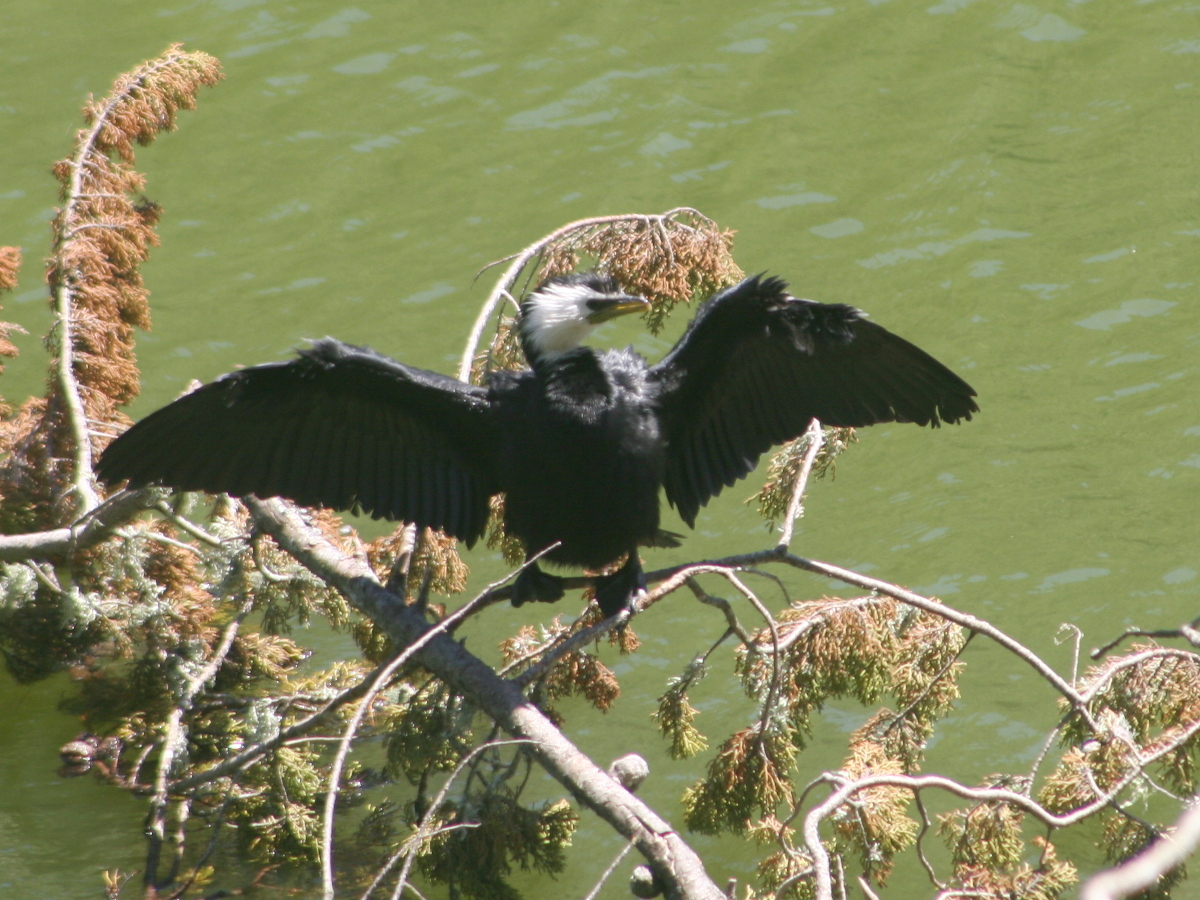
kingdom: Animalia
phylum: Chordata
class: Aves
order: Suliformes
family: Phalacrocoracidae
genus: Microcarbo
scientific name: Microcarbo melanoleucos
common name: Little pied cormorant
